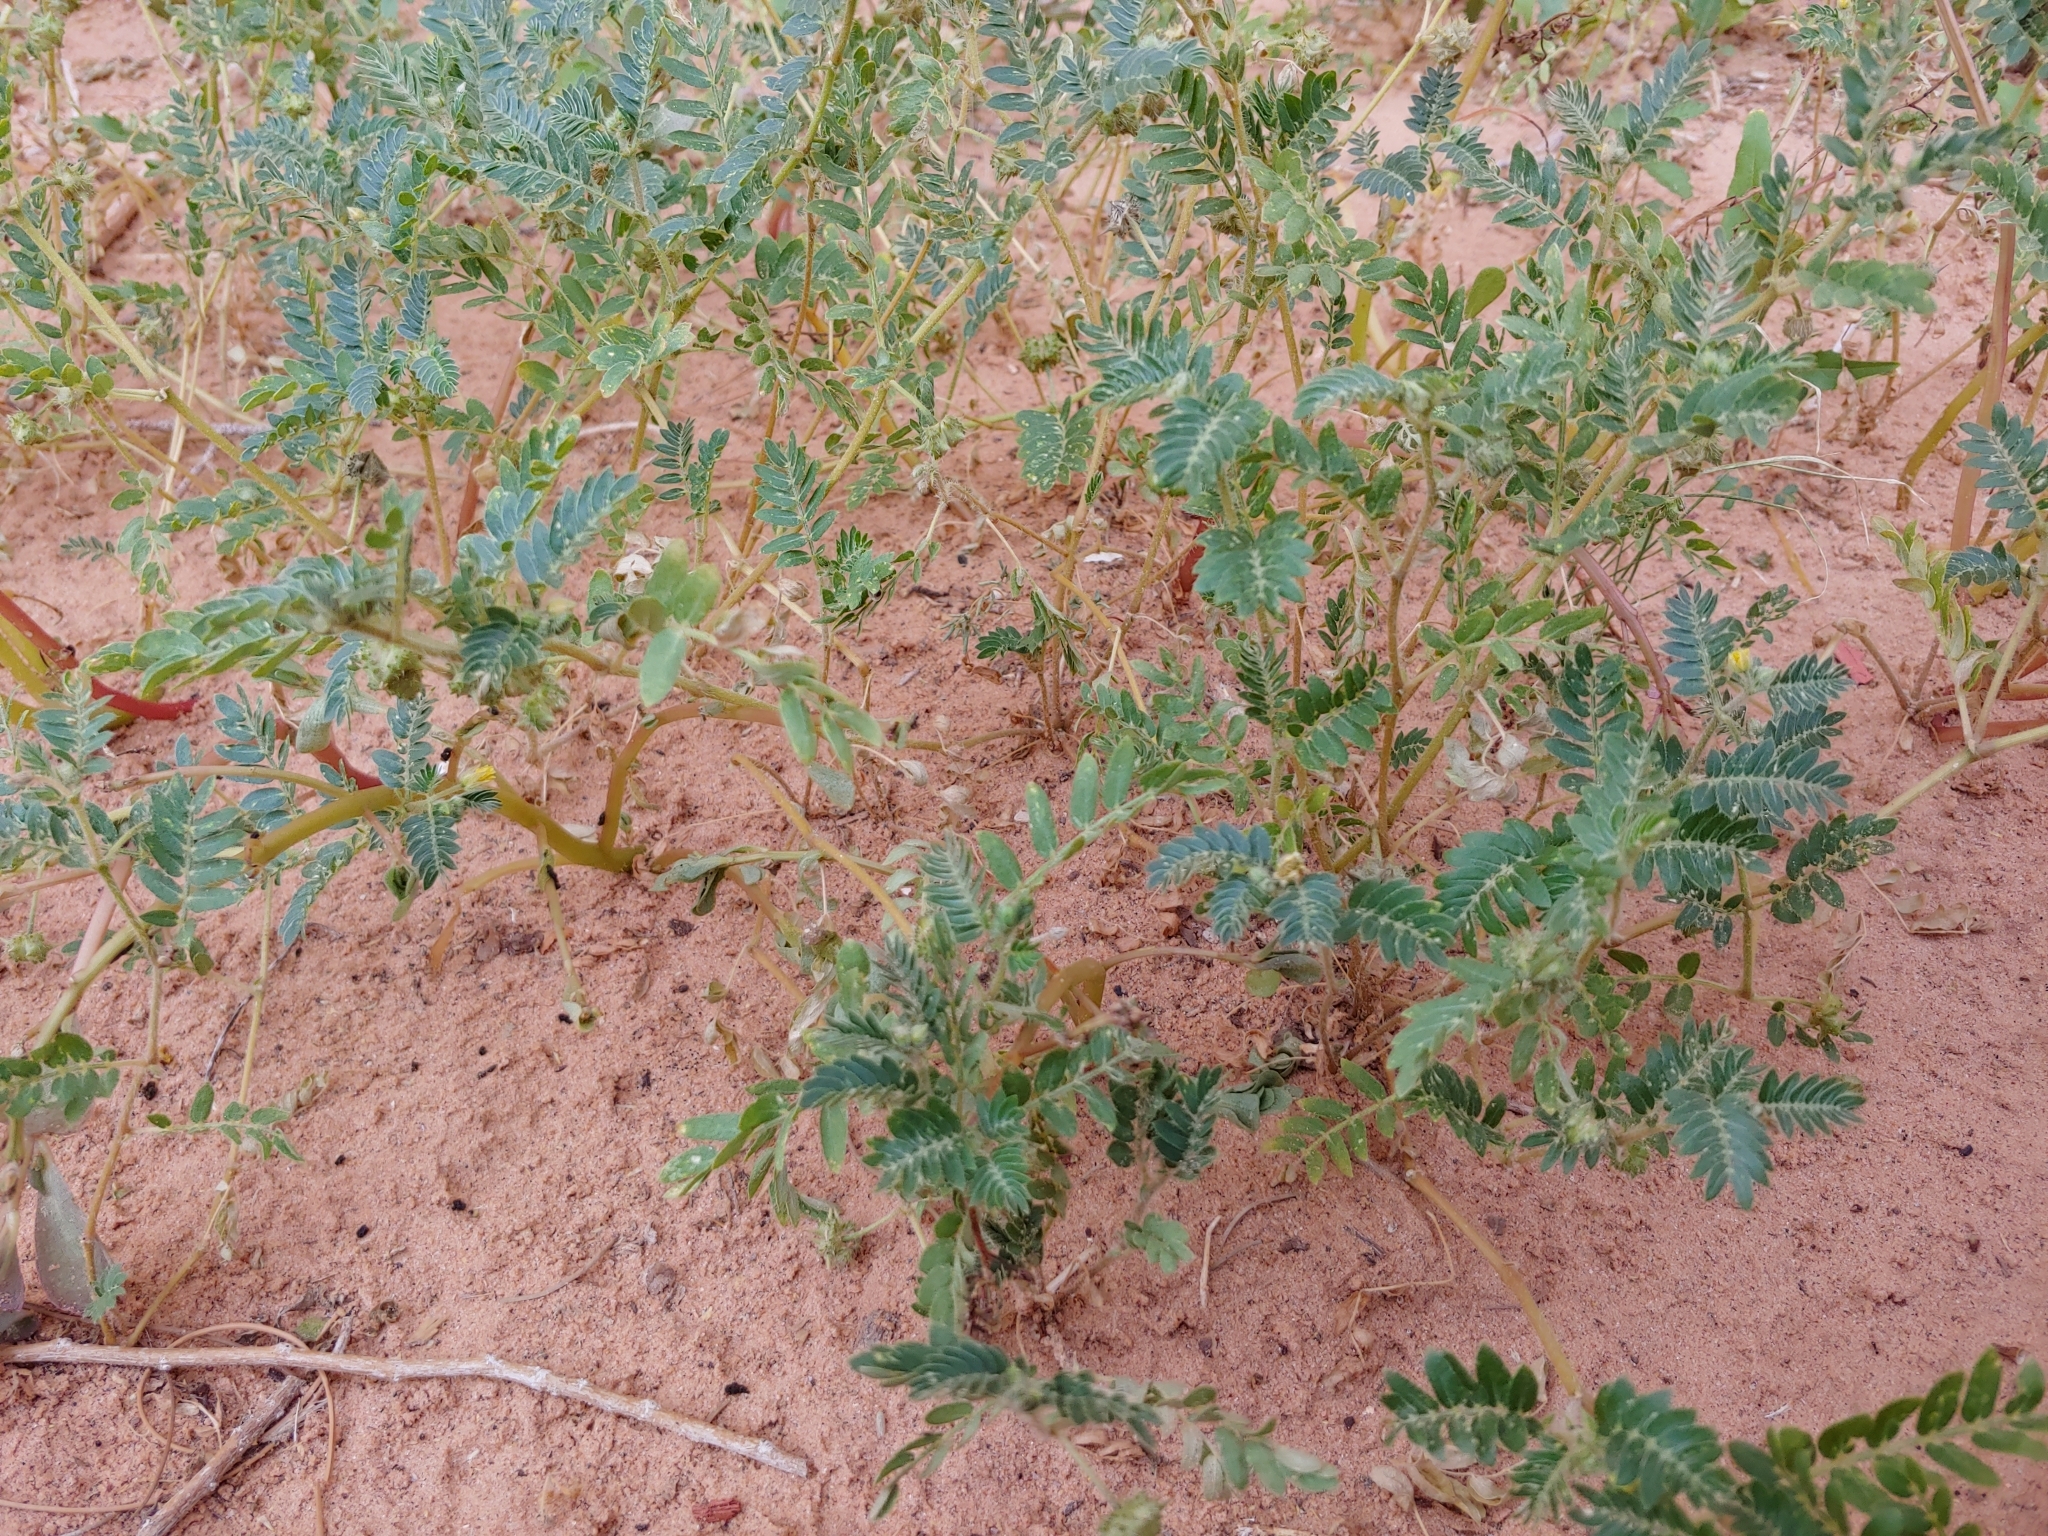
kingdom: Plantae
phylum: Tracheophyta
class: Magnoliopsida
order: Zygophyllales
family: Zygophyllaceae
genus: Tribulus
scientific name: Tribulus terrestris
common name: Puncturevine
